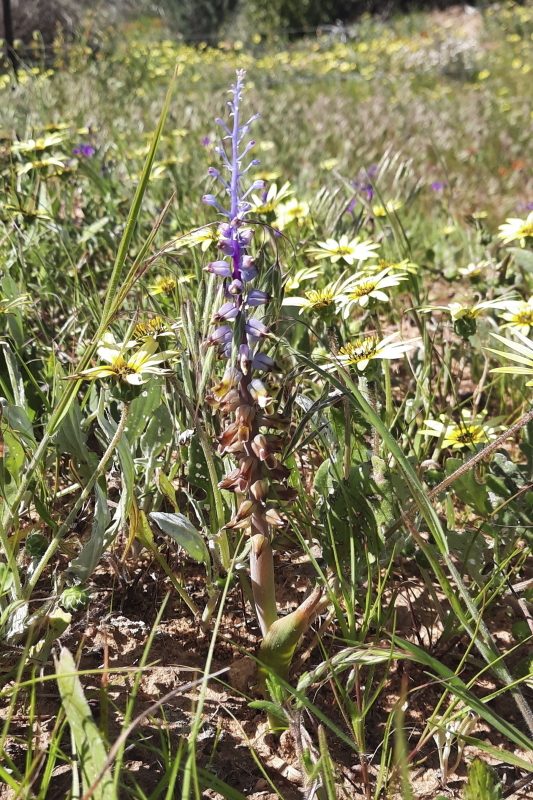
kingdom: Plantae
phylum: Tracheophyta
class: Liliopsida
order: Asparagales
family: Asparagaceae
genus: Lachenalia
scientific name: Lachenalia mutabilis
